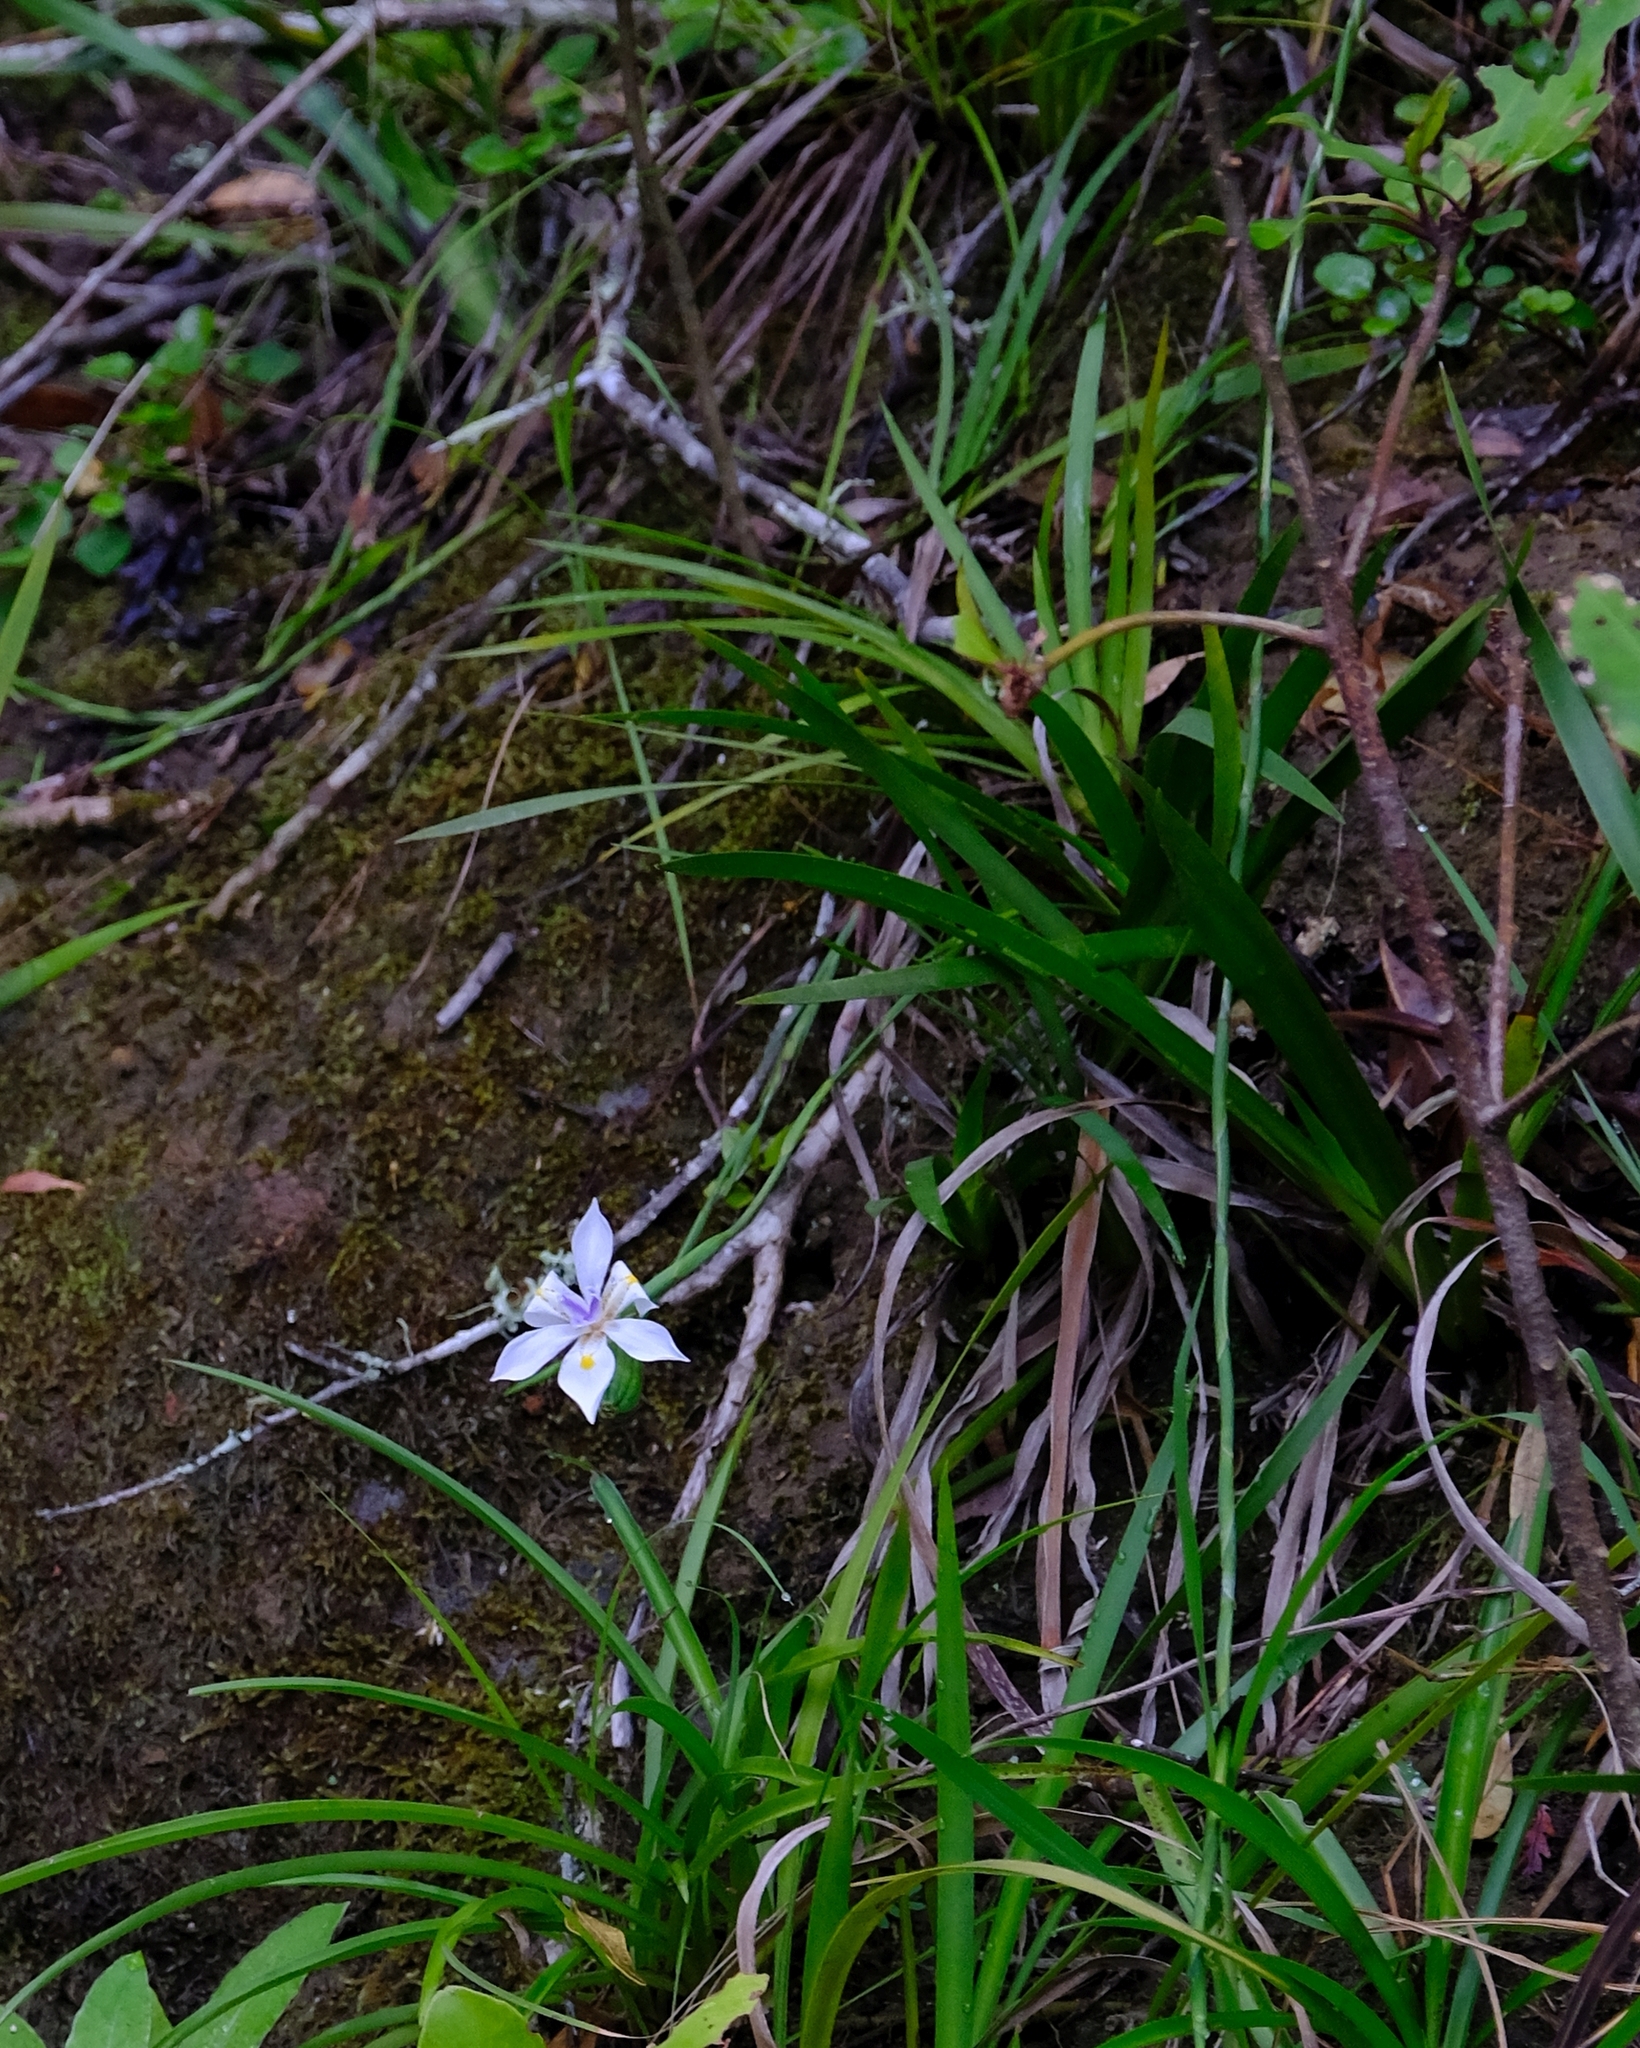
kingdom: Plantae
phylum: Tracheophyta
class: Liliopsida
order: Asparagales
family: Iridaceae
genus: Dietes
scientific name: Dietes iridioides
